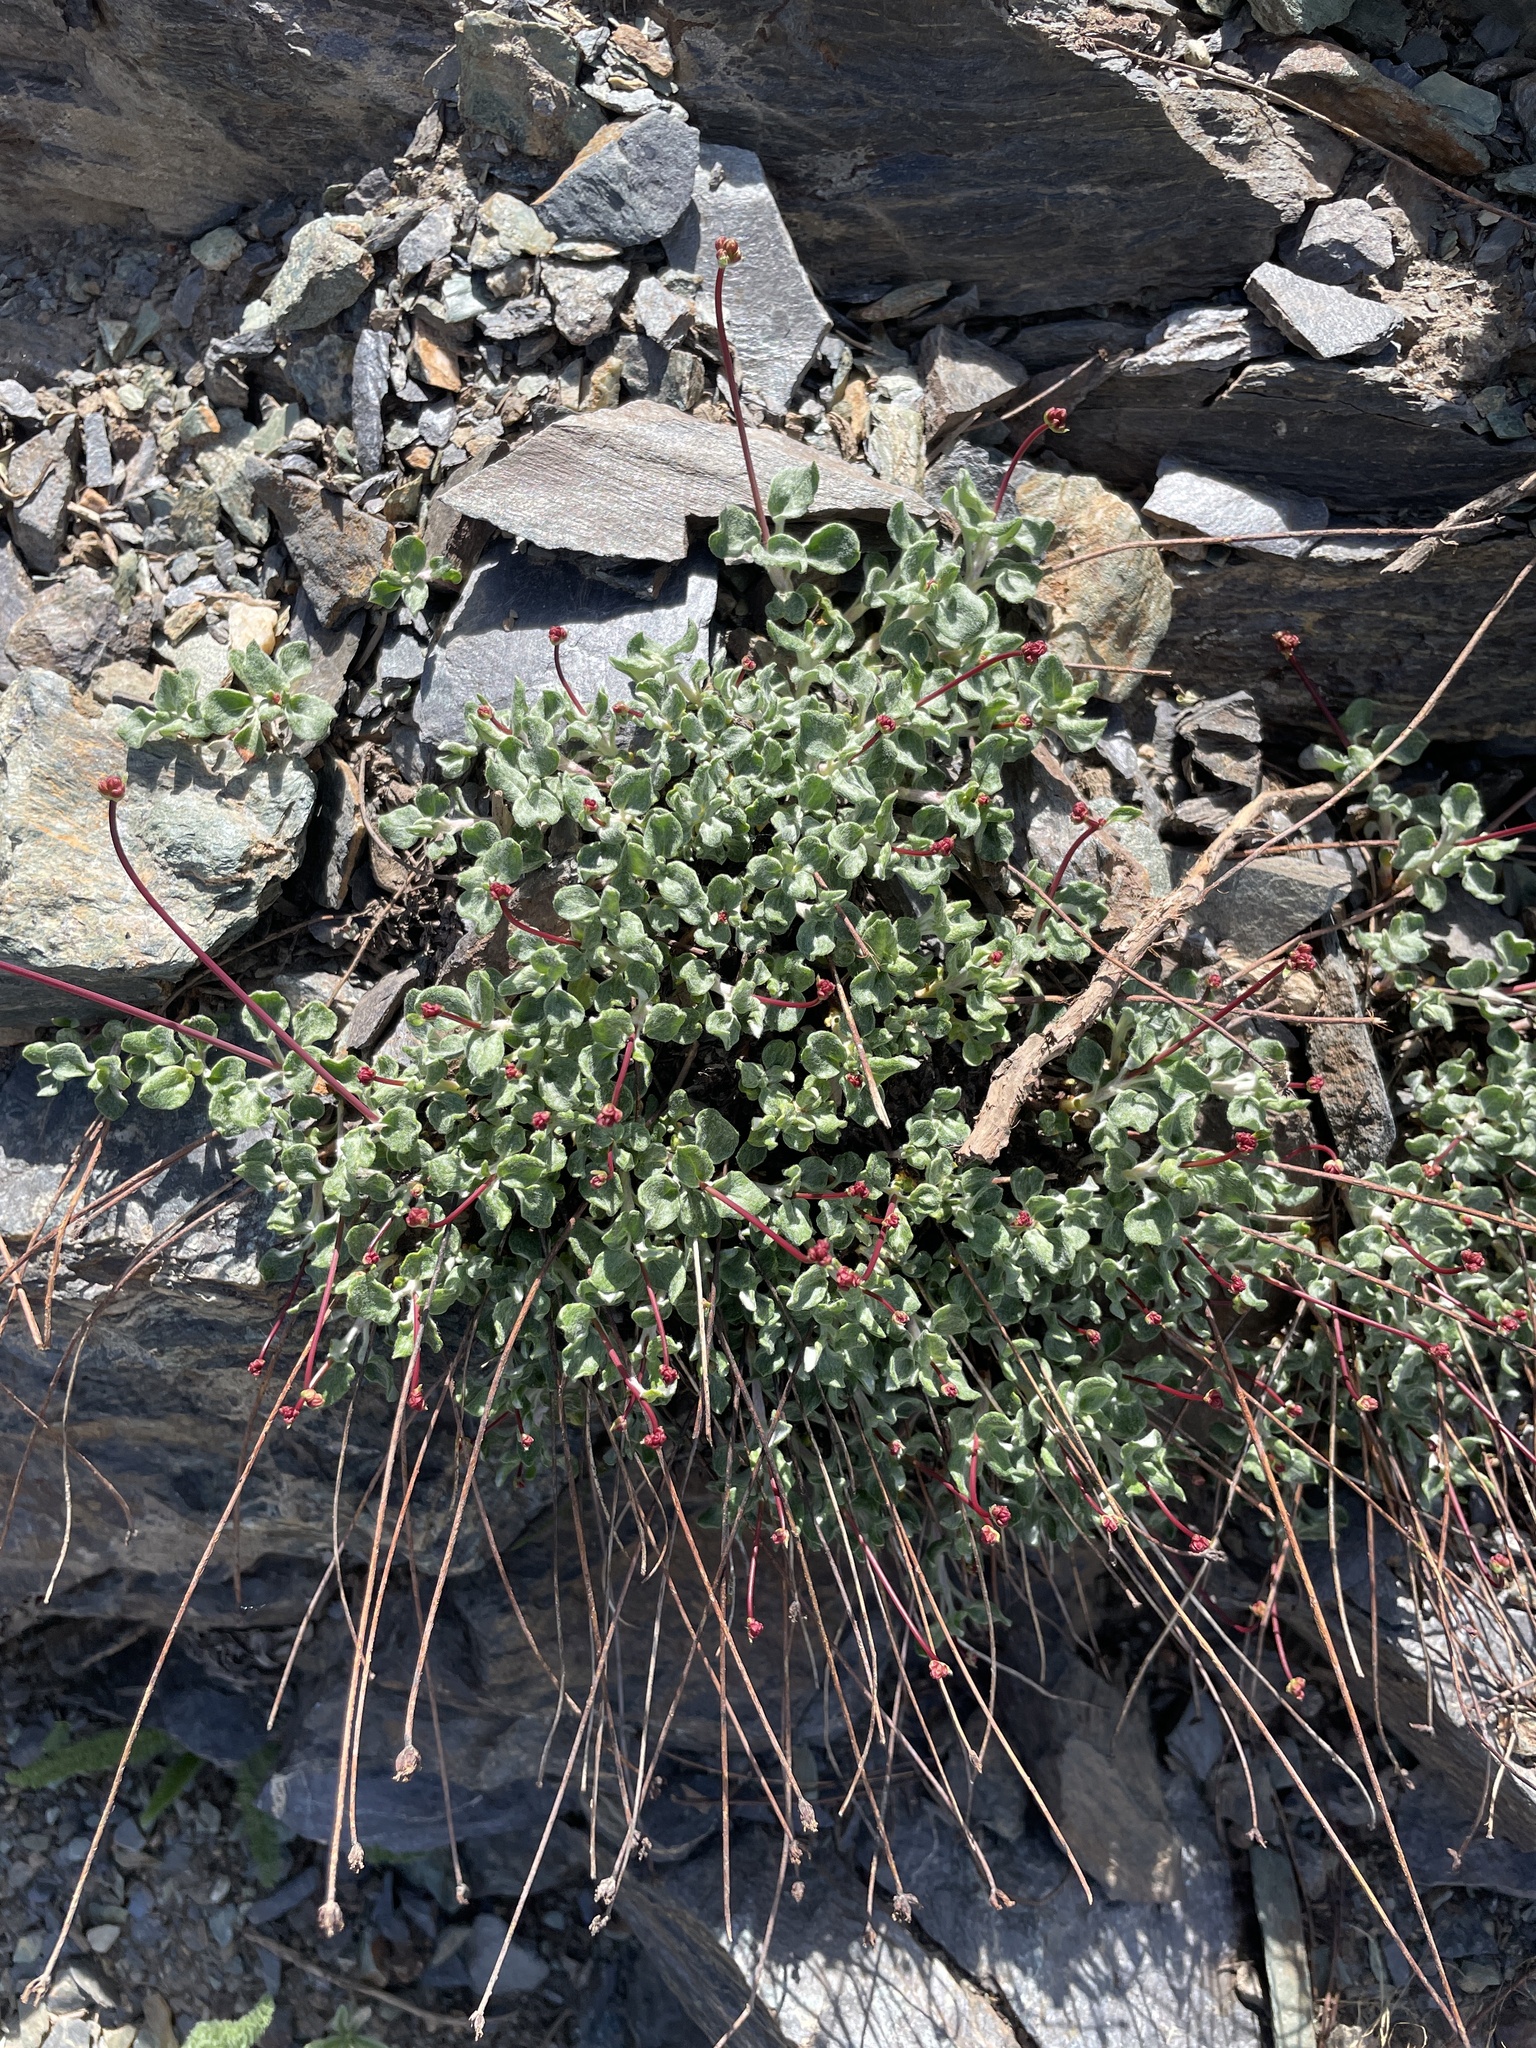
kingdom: Plantae
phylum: Tracheophyta
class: Magnoliopsida
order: Caryophyllales
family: Polygonaceae
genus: Eriogonum
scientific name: Eriogonum brevicaule
